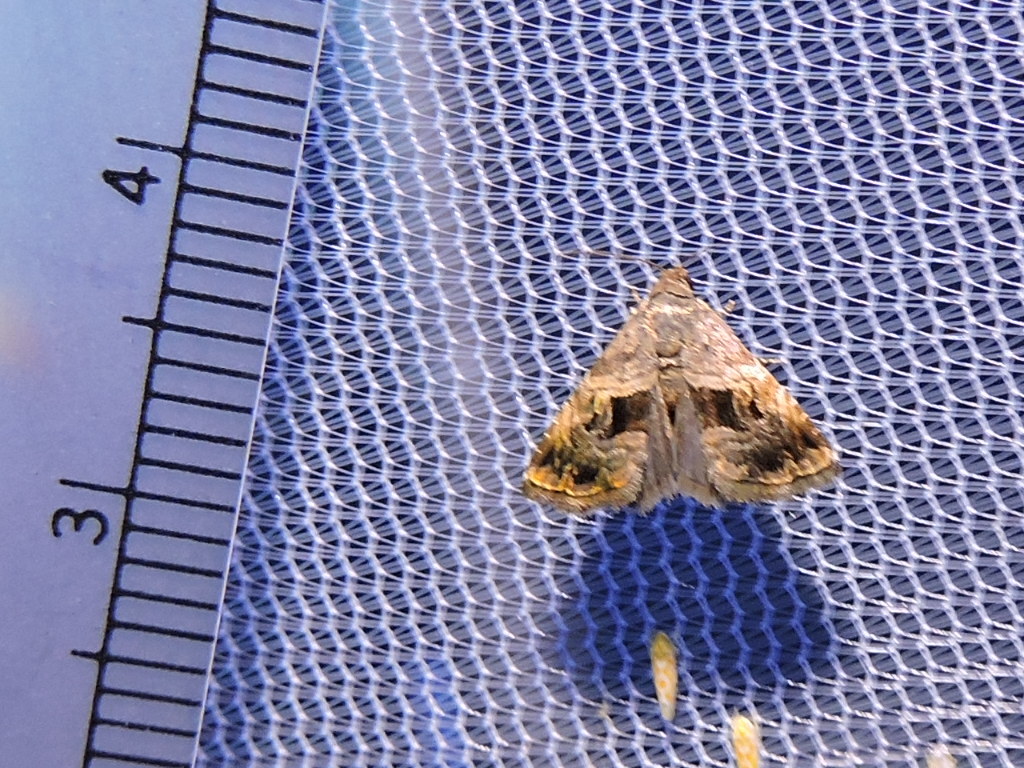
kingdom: Animalia
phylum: Arthropoda
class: Insecta
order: Lepidoptera
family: Noctuidae
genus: Tripudia
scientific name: Tripudia quadrifera
